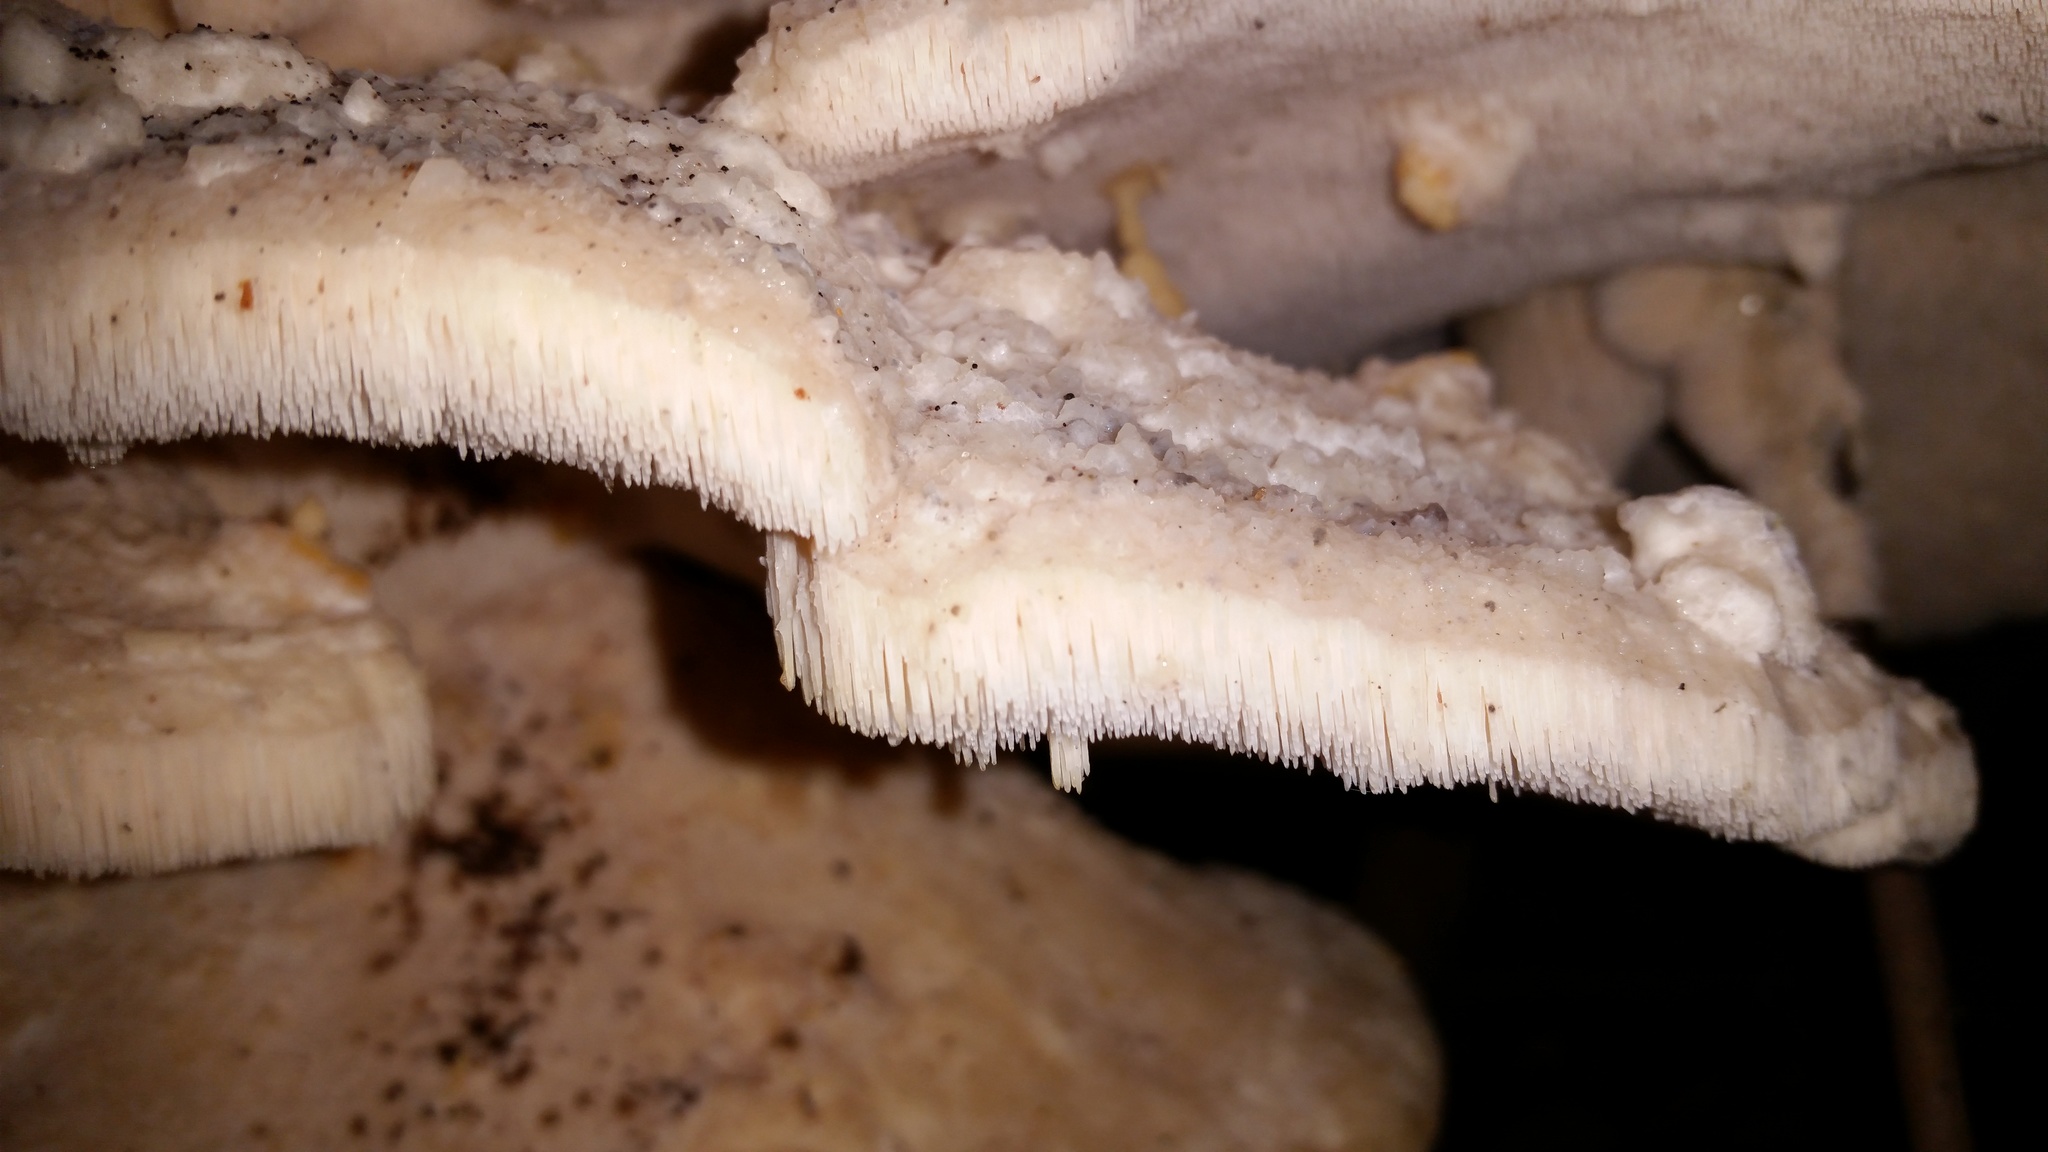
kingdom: Fungi
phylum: Basidiomycota
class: Agaricomycetes
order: Polyporales
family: Meruliaceae
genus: Climacodon
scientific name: Climacodon septentrionalis
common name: Northern tooth
